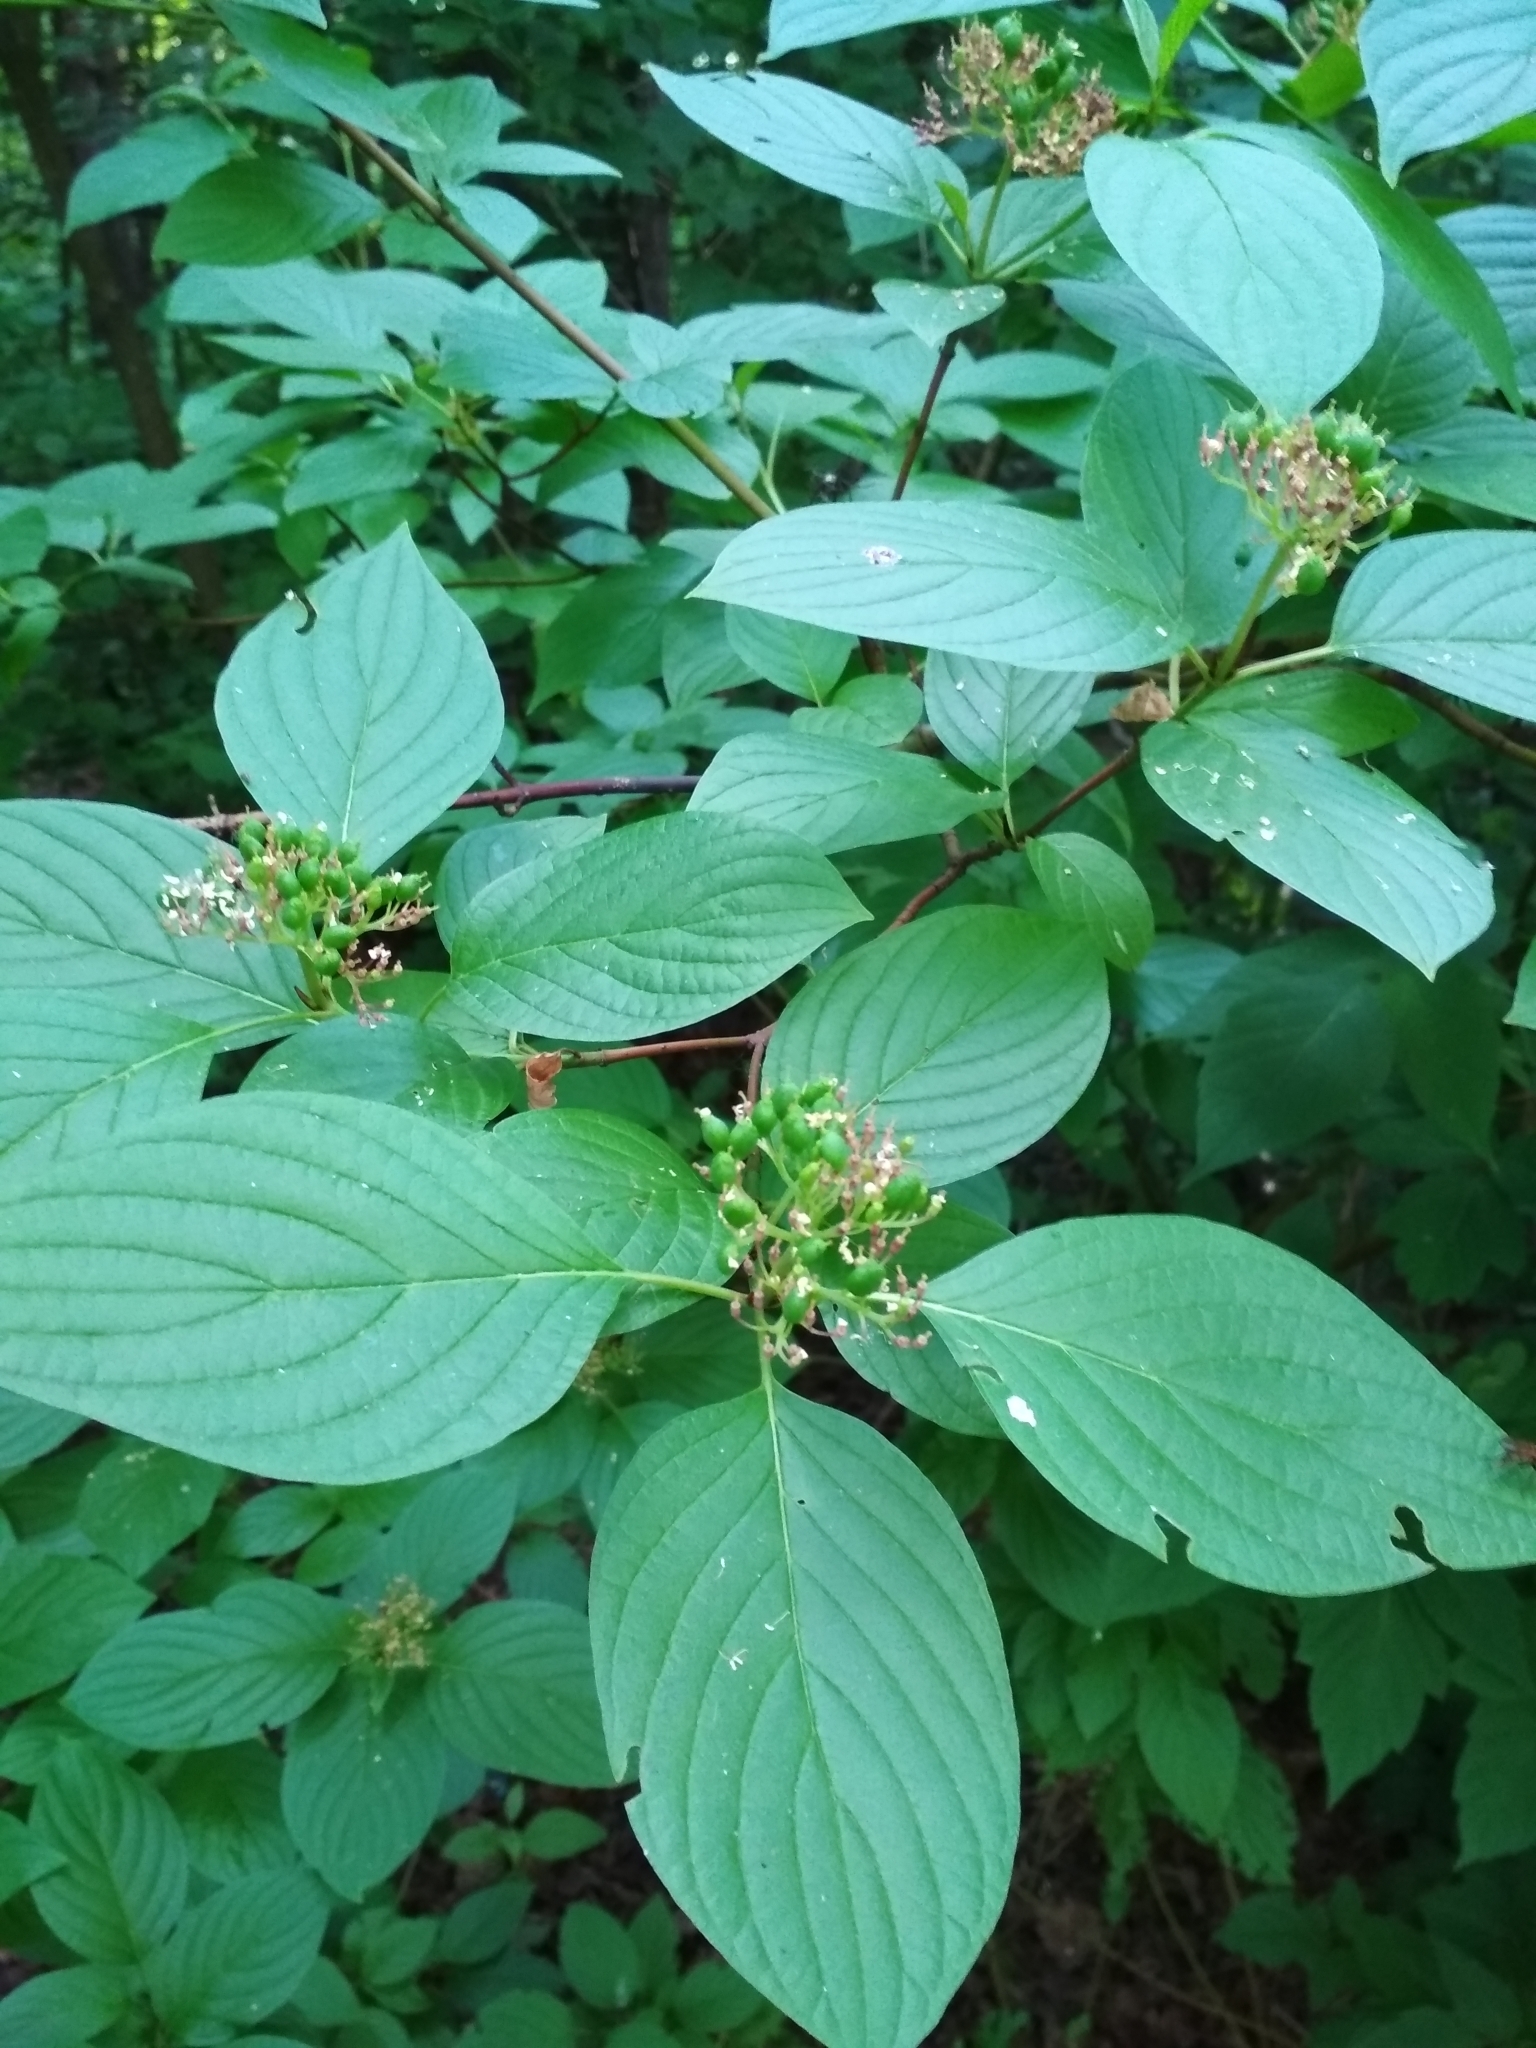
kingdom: Plantae
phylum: Tracheophyta
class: Magnoliopsida
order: Cornales
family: Cornaceae
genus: Cornus
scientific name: Cornus alba
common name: White dogwood
